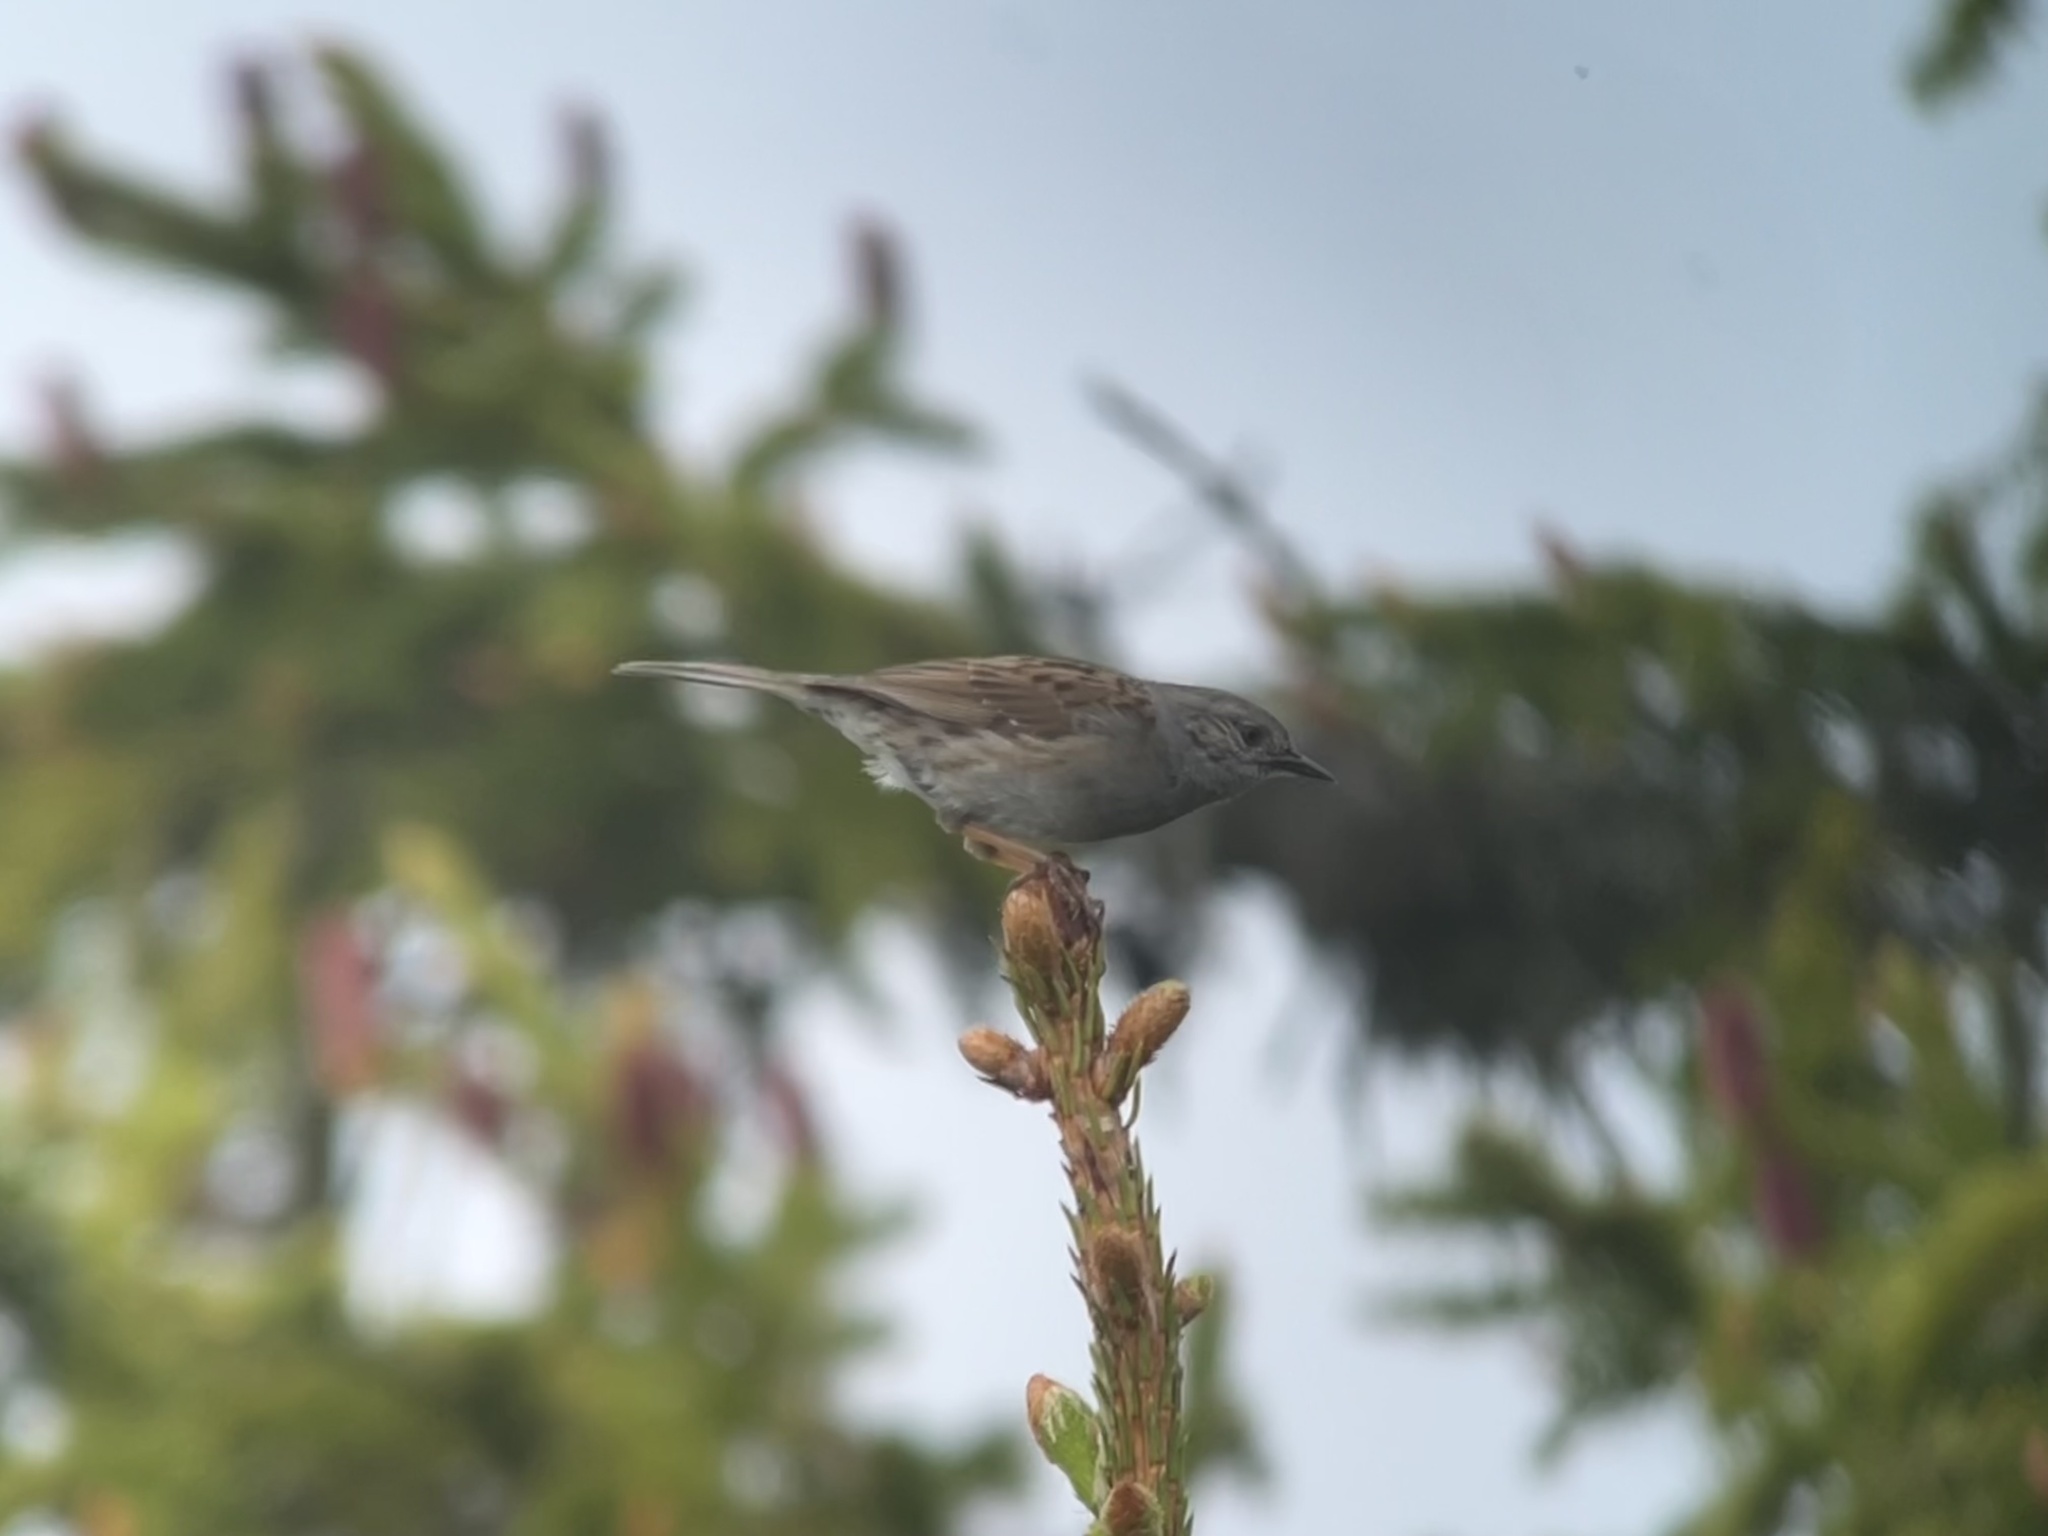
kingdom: Animalia
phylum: Chordata
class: Aves
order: Passeriformes
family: Prunellidae
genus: Prunella
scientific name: Prunella modularis
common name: Dunnock
